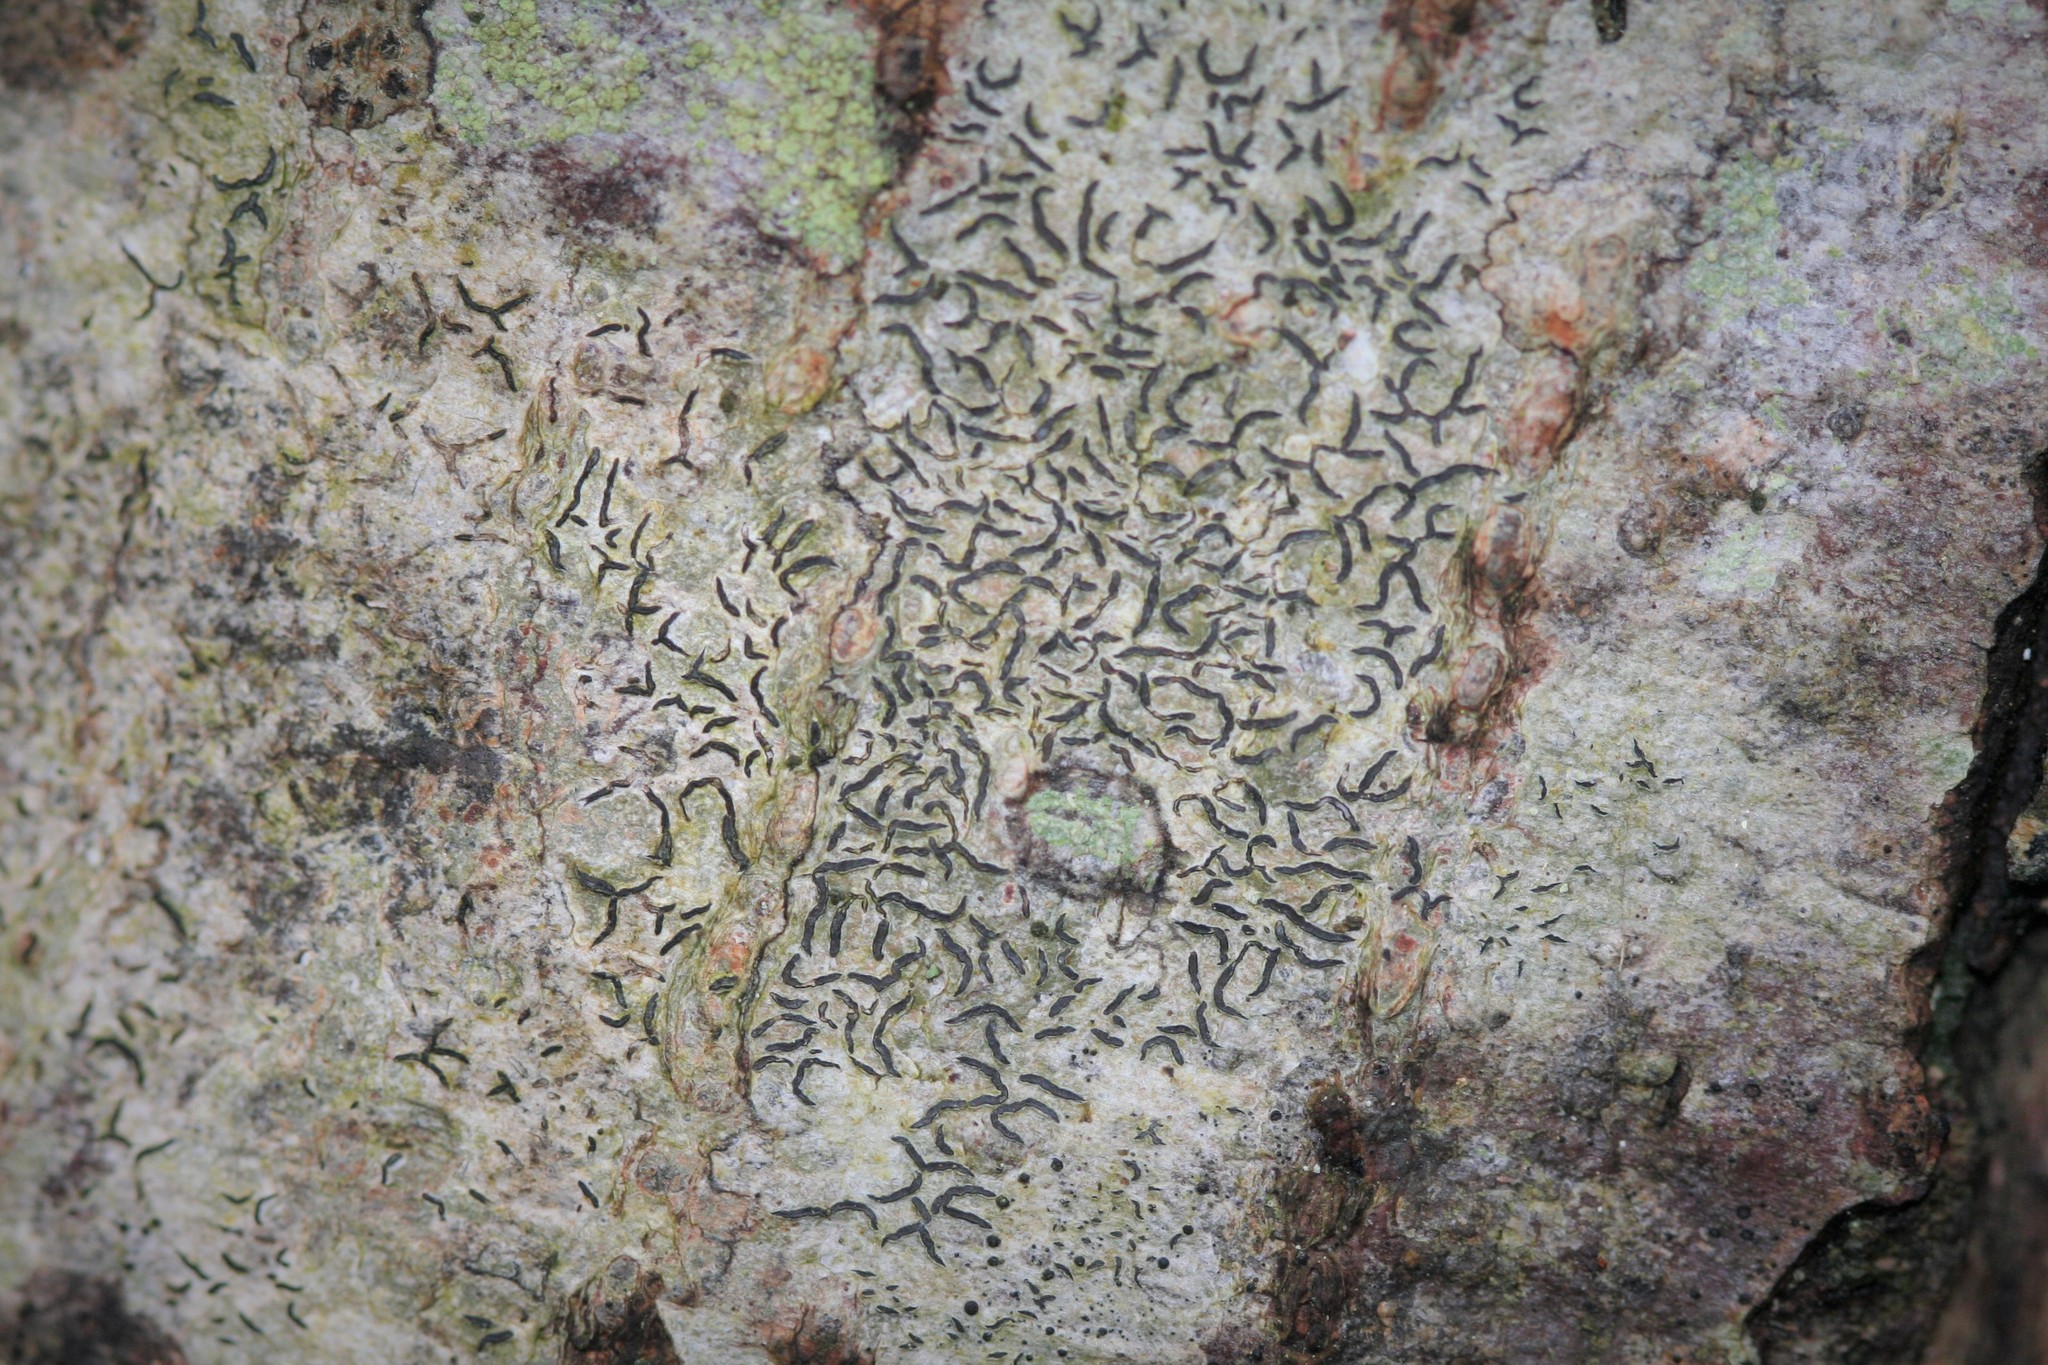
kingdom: Fungi
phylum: Ascomycota
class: Lecanoromycetes
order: Ostropales
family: Graphidaceae
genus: Graphis
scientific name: Graphis scripta
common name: Script lichen
